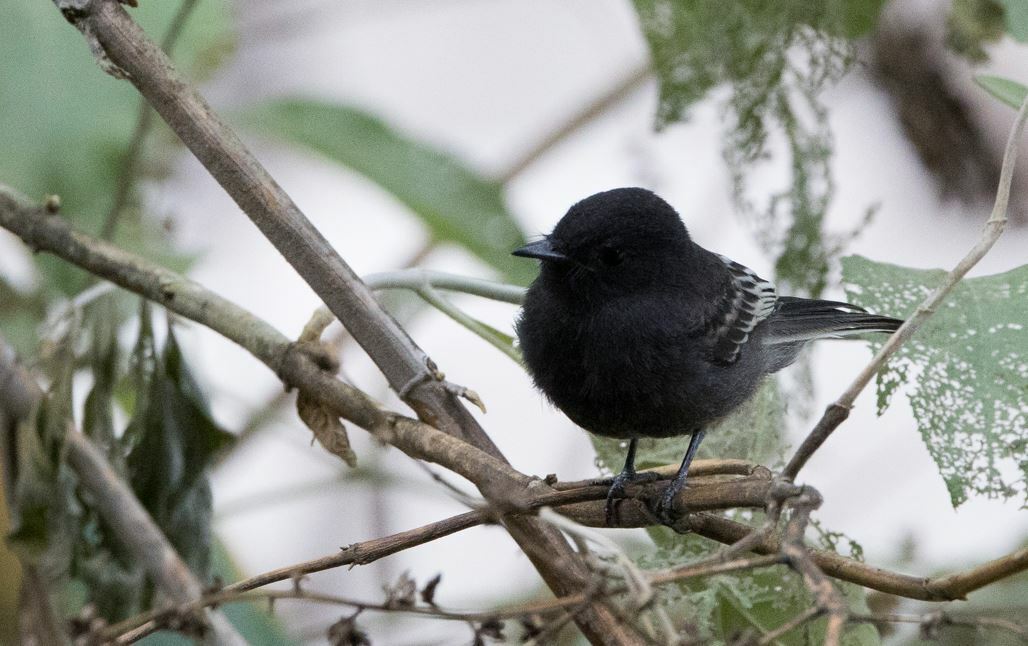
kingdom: Animalia
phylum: Chordata
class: Aves
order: Passeriformes
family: Tyrannidae
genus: Sayornis
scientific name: Sayornis nigricans
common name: Black phoebe
